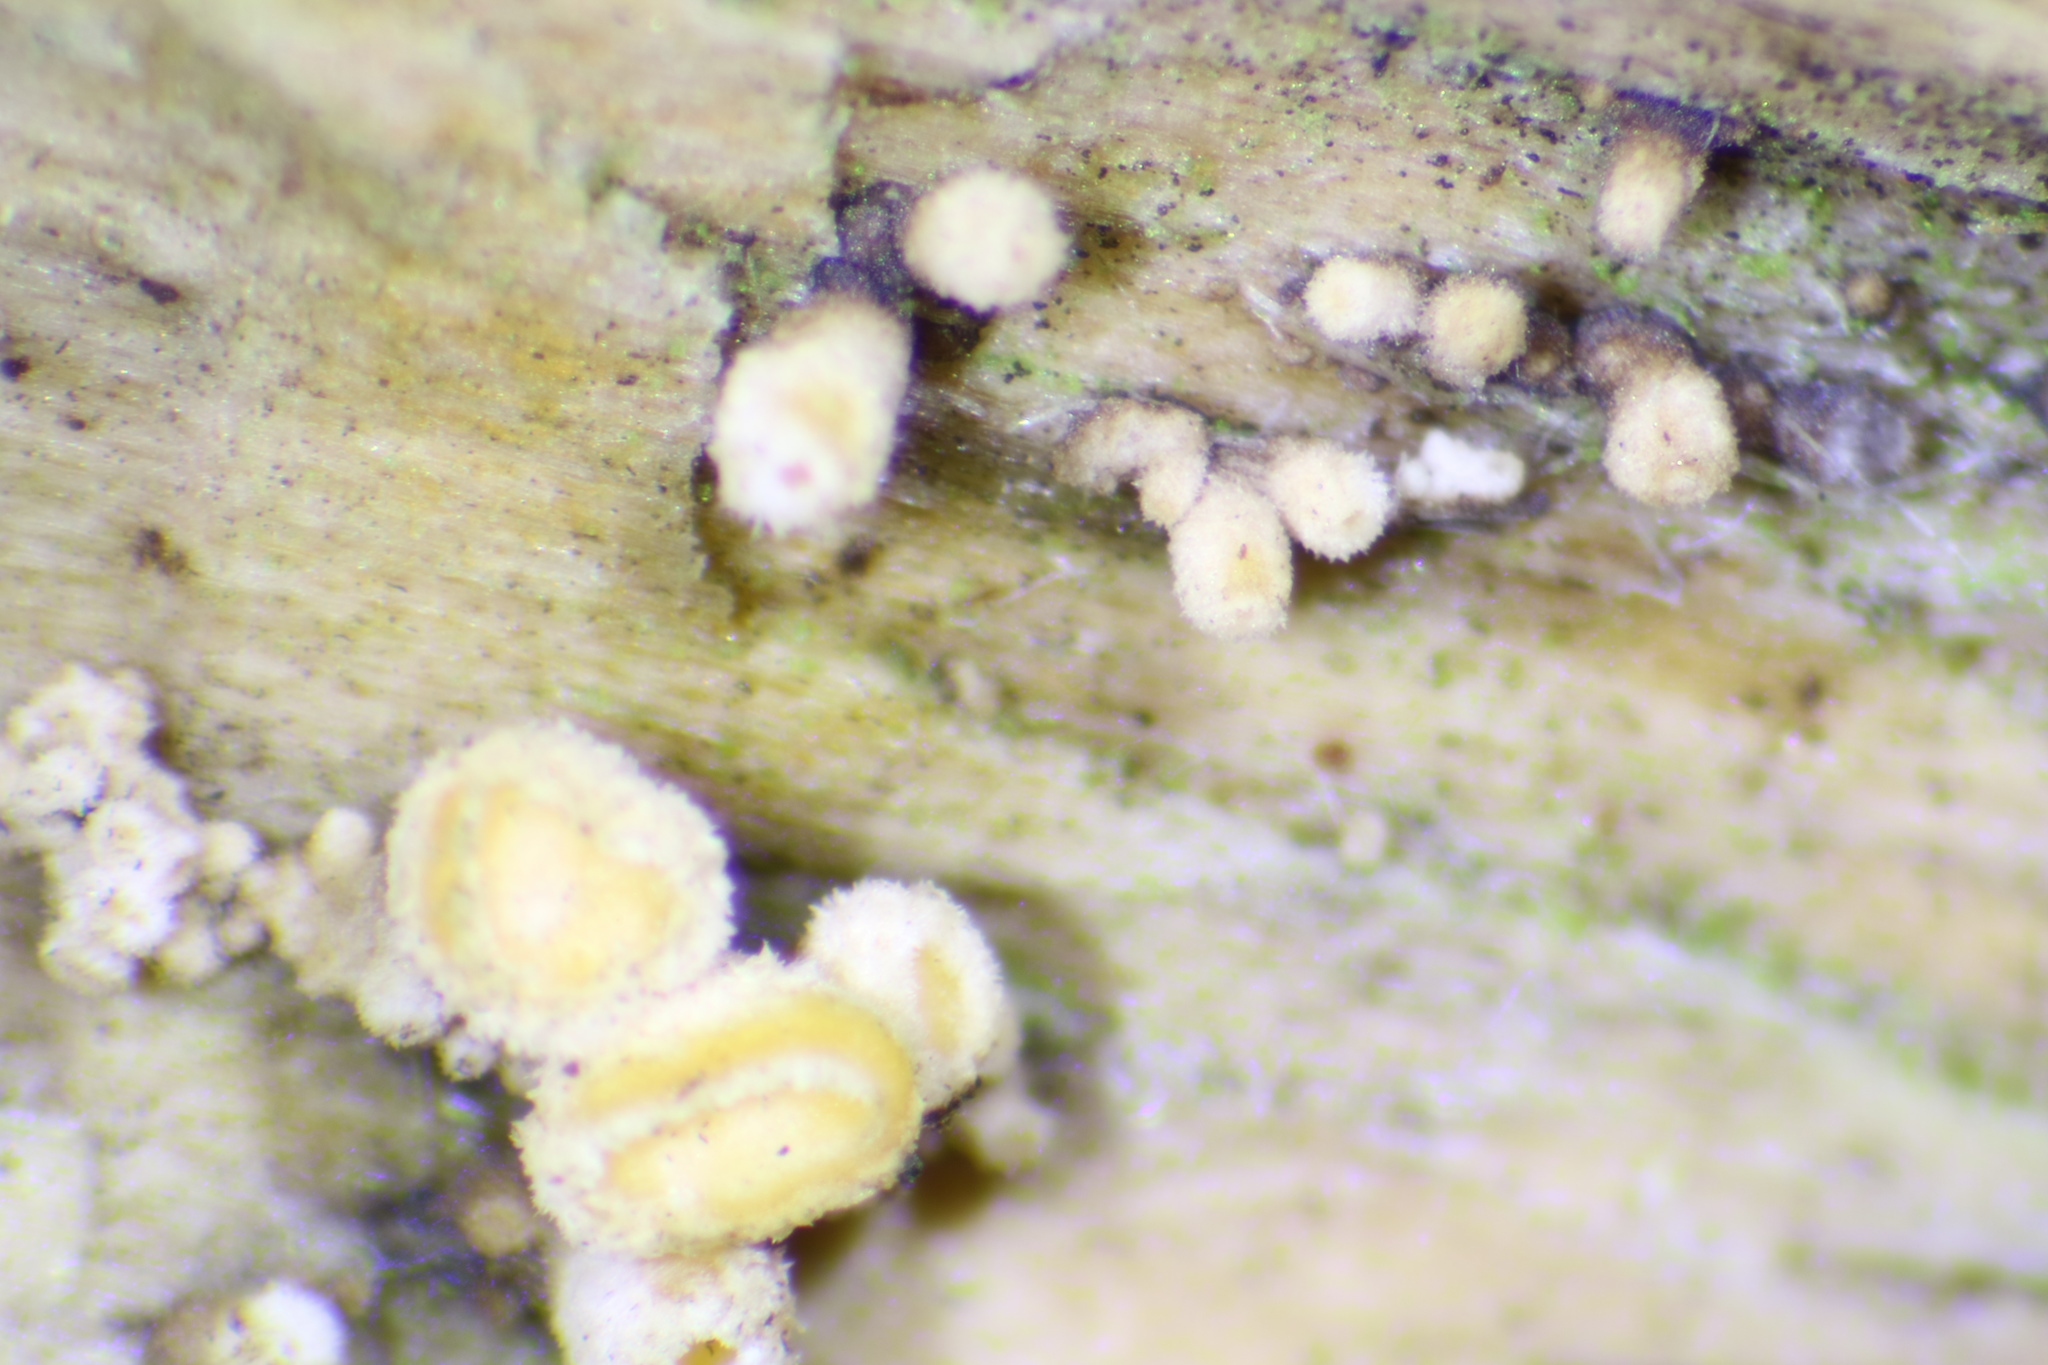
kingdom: Fungi
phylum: Basidiomycota
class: Dacrymycetes
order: Dacrymycetales
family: Dacrymycetaceae
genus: Ditiola
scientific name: Ditiola peziziformis
